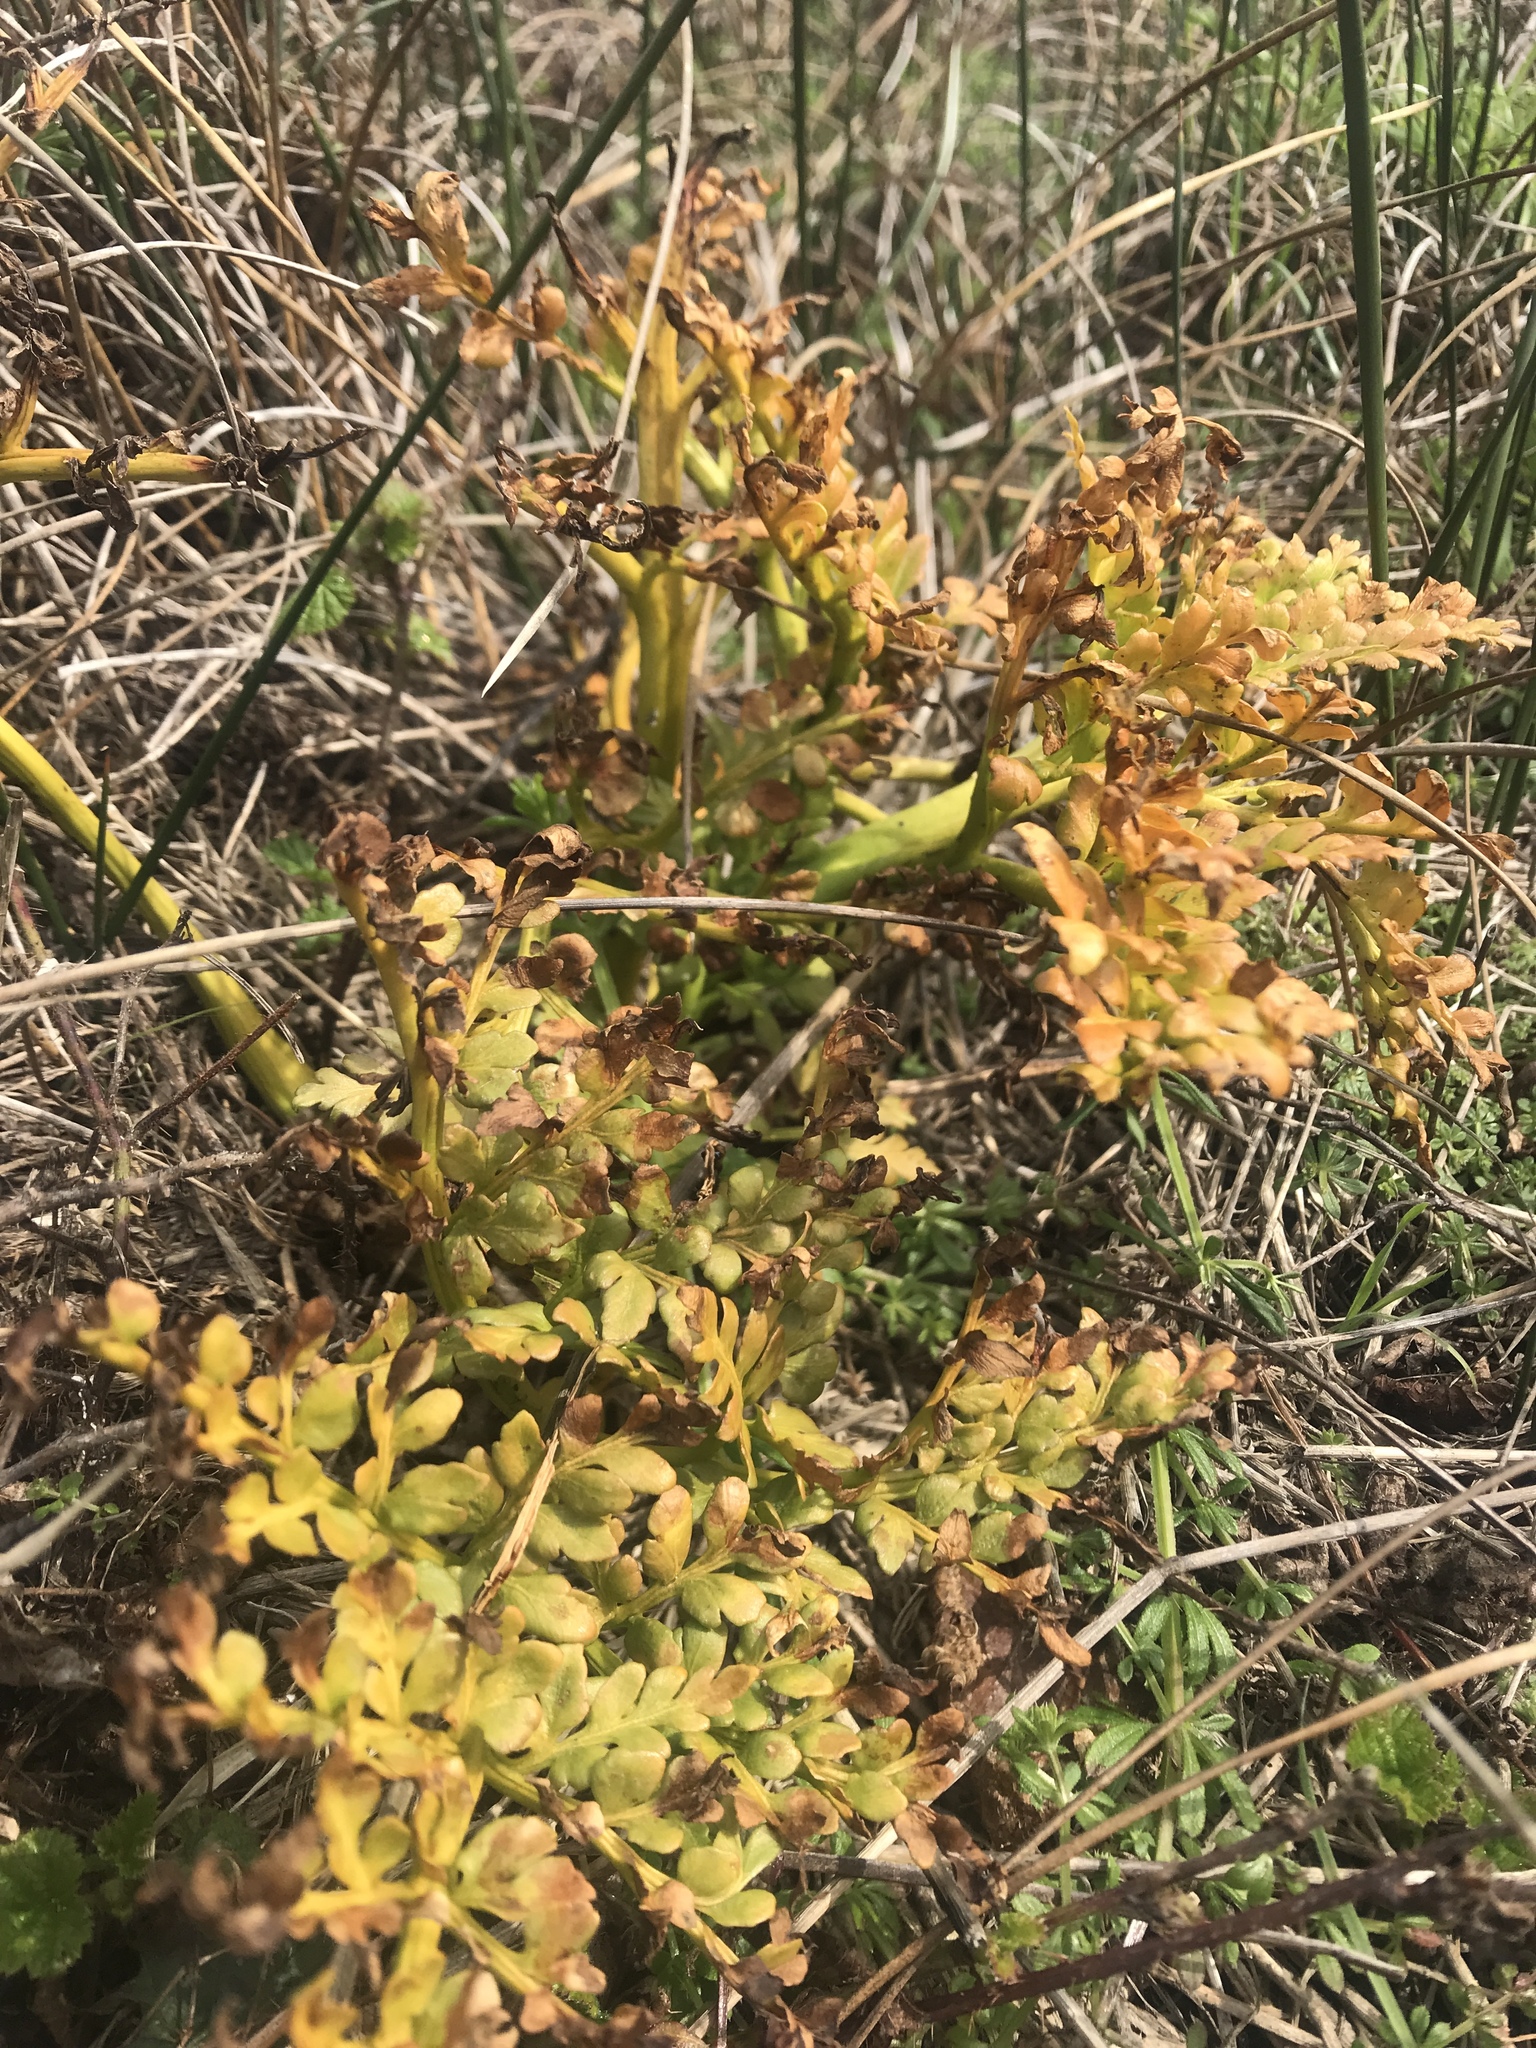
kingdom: Plantae
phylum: Tracheophyta
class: Polypodiopsida
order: Ophioglossales
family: Ophioglossaceae
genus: Sceptridium
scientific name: Sceptridium multifidum
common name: Leathery grape fern
